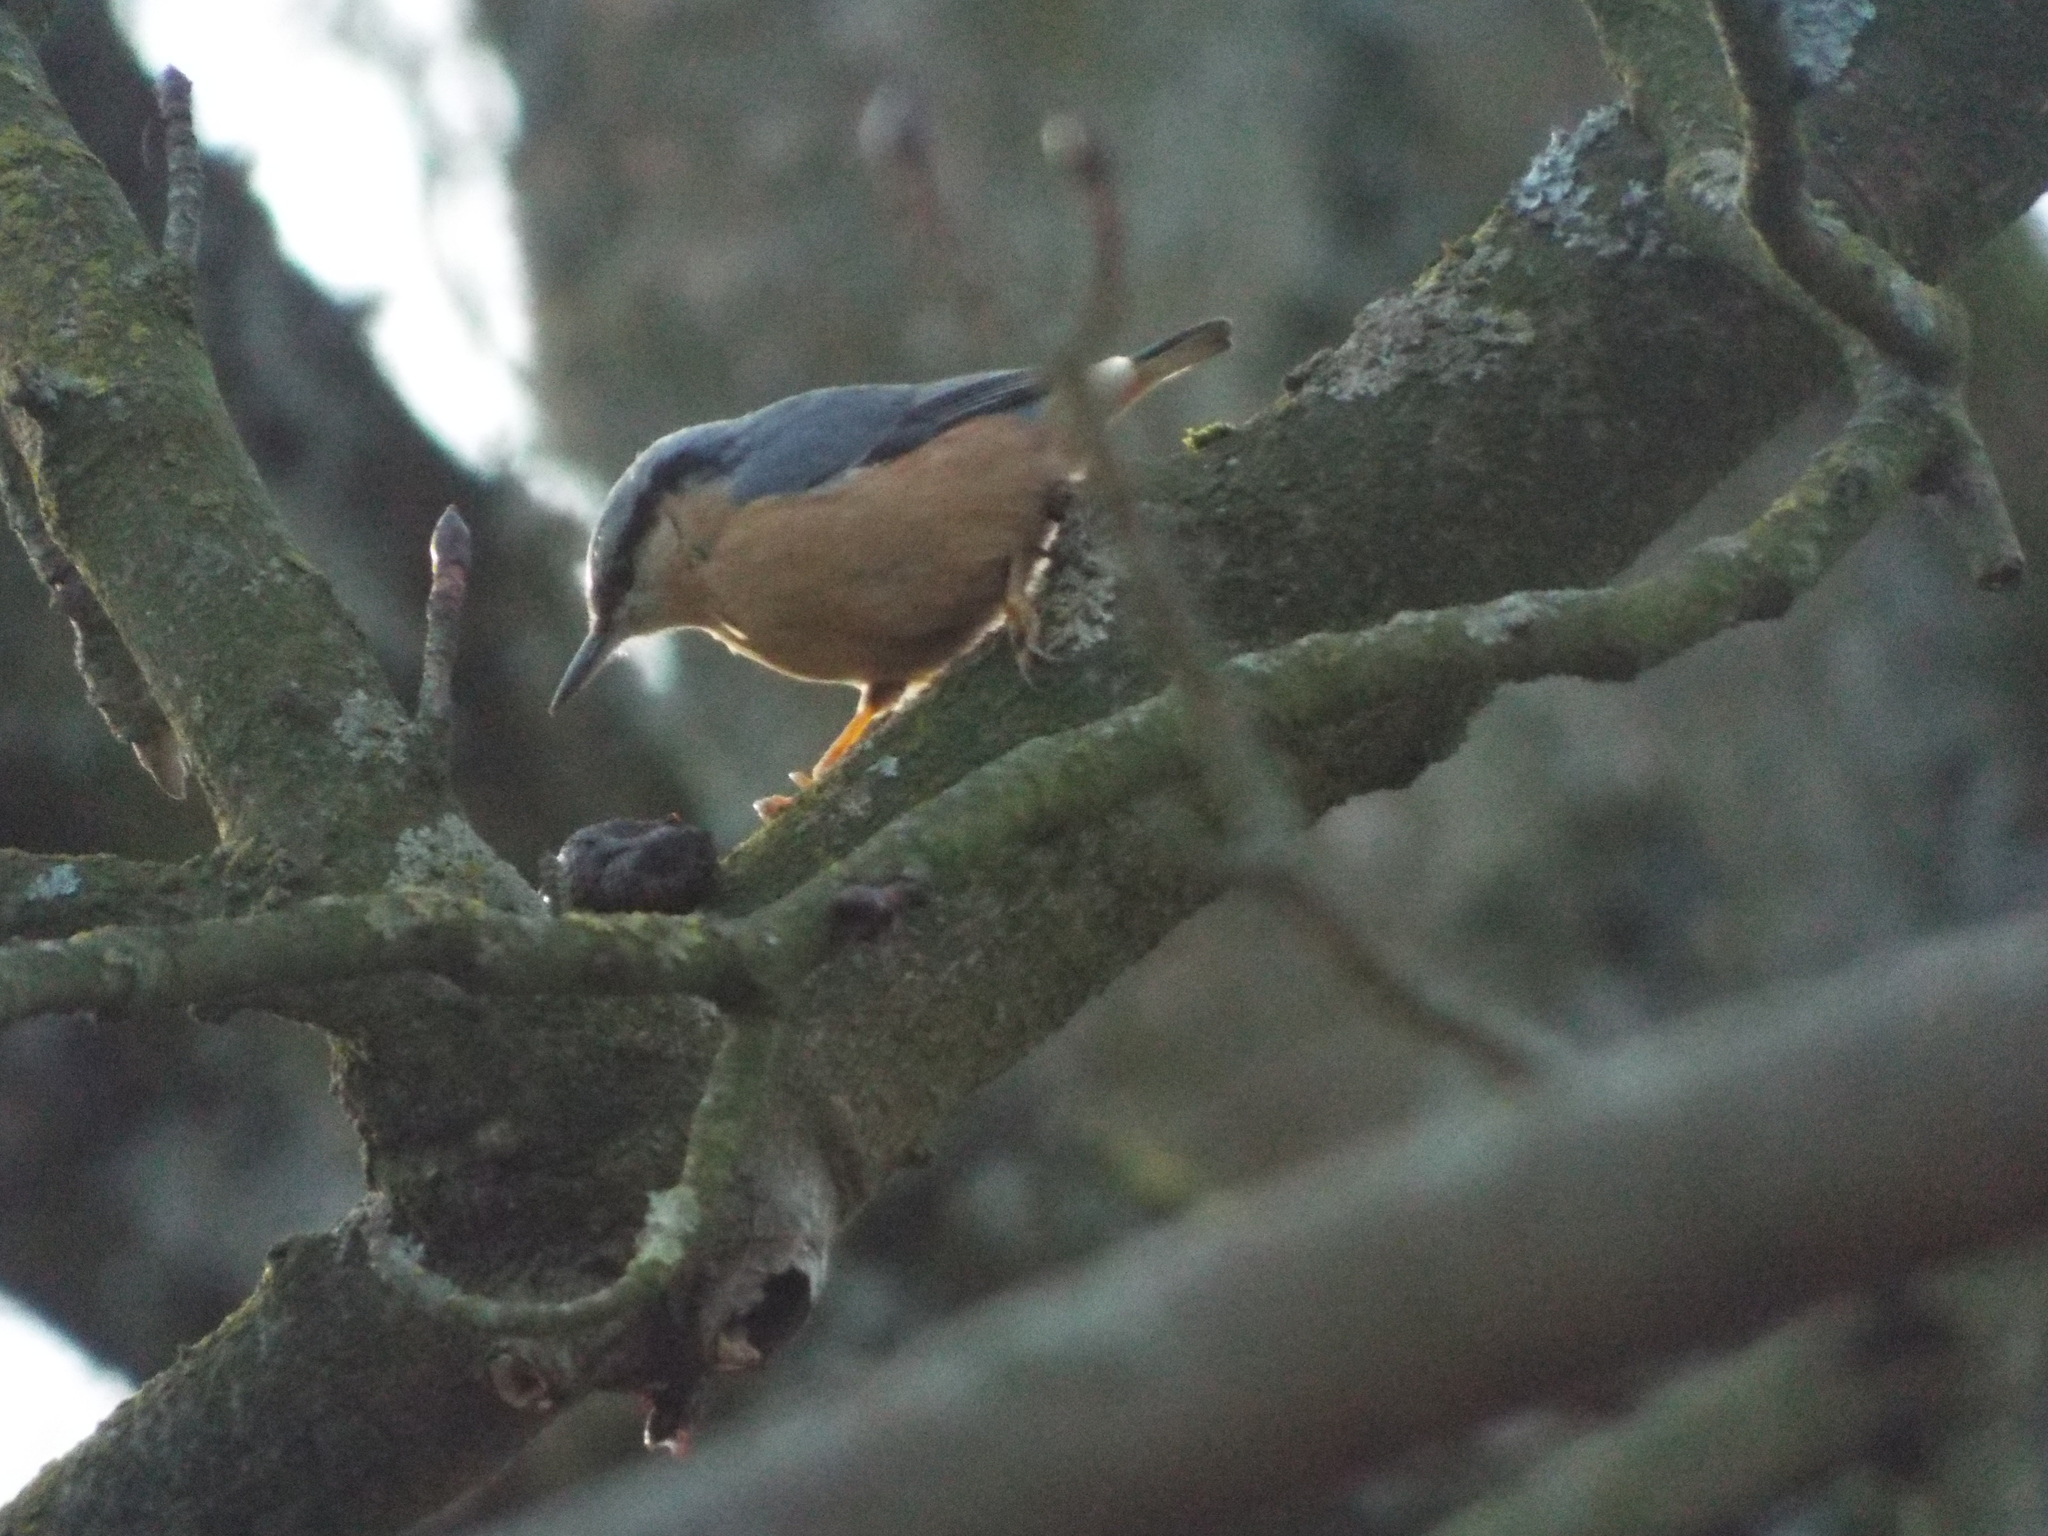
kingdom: Animalia
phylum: Chordata
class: Aves
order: Passeriformes
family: Sittidae
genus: Sitta
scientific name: Sitta europaea
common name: Eurasian nuthatch
